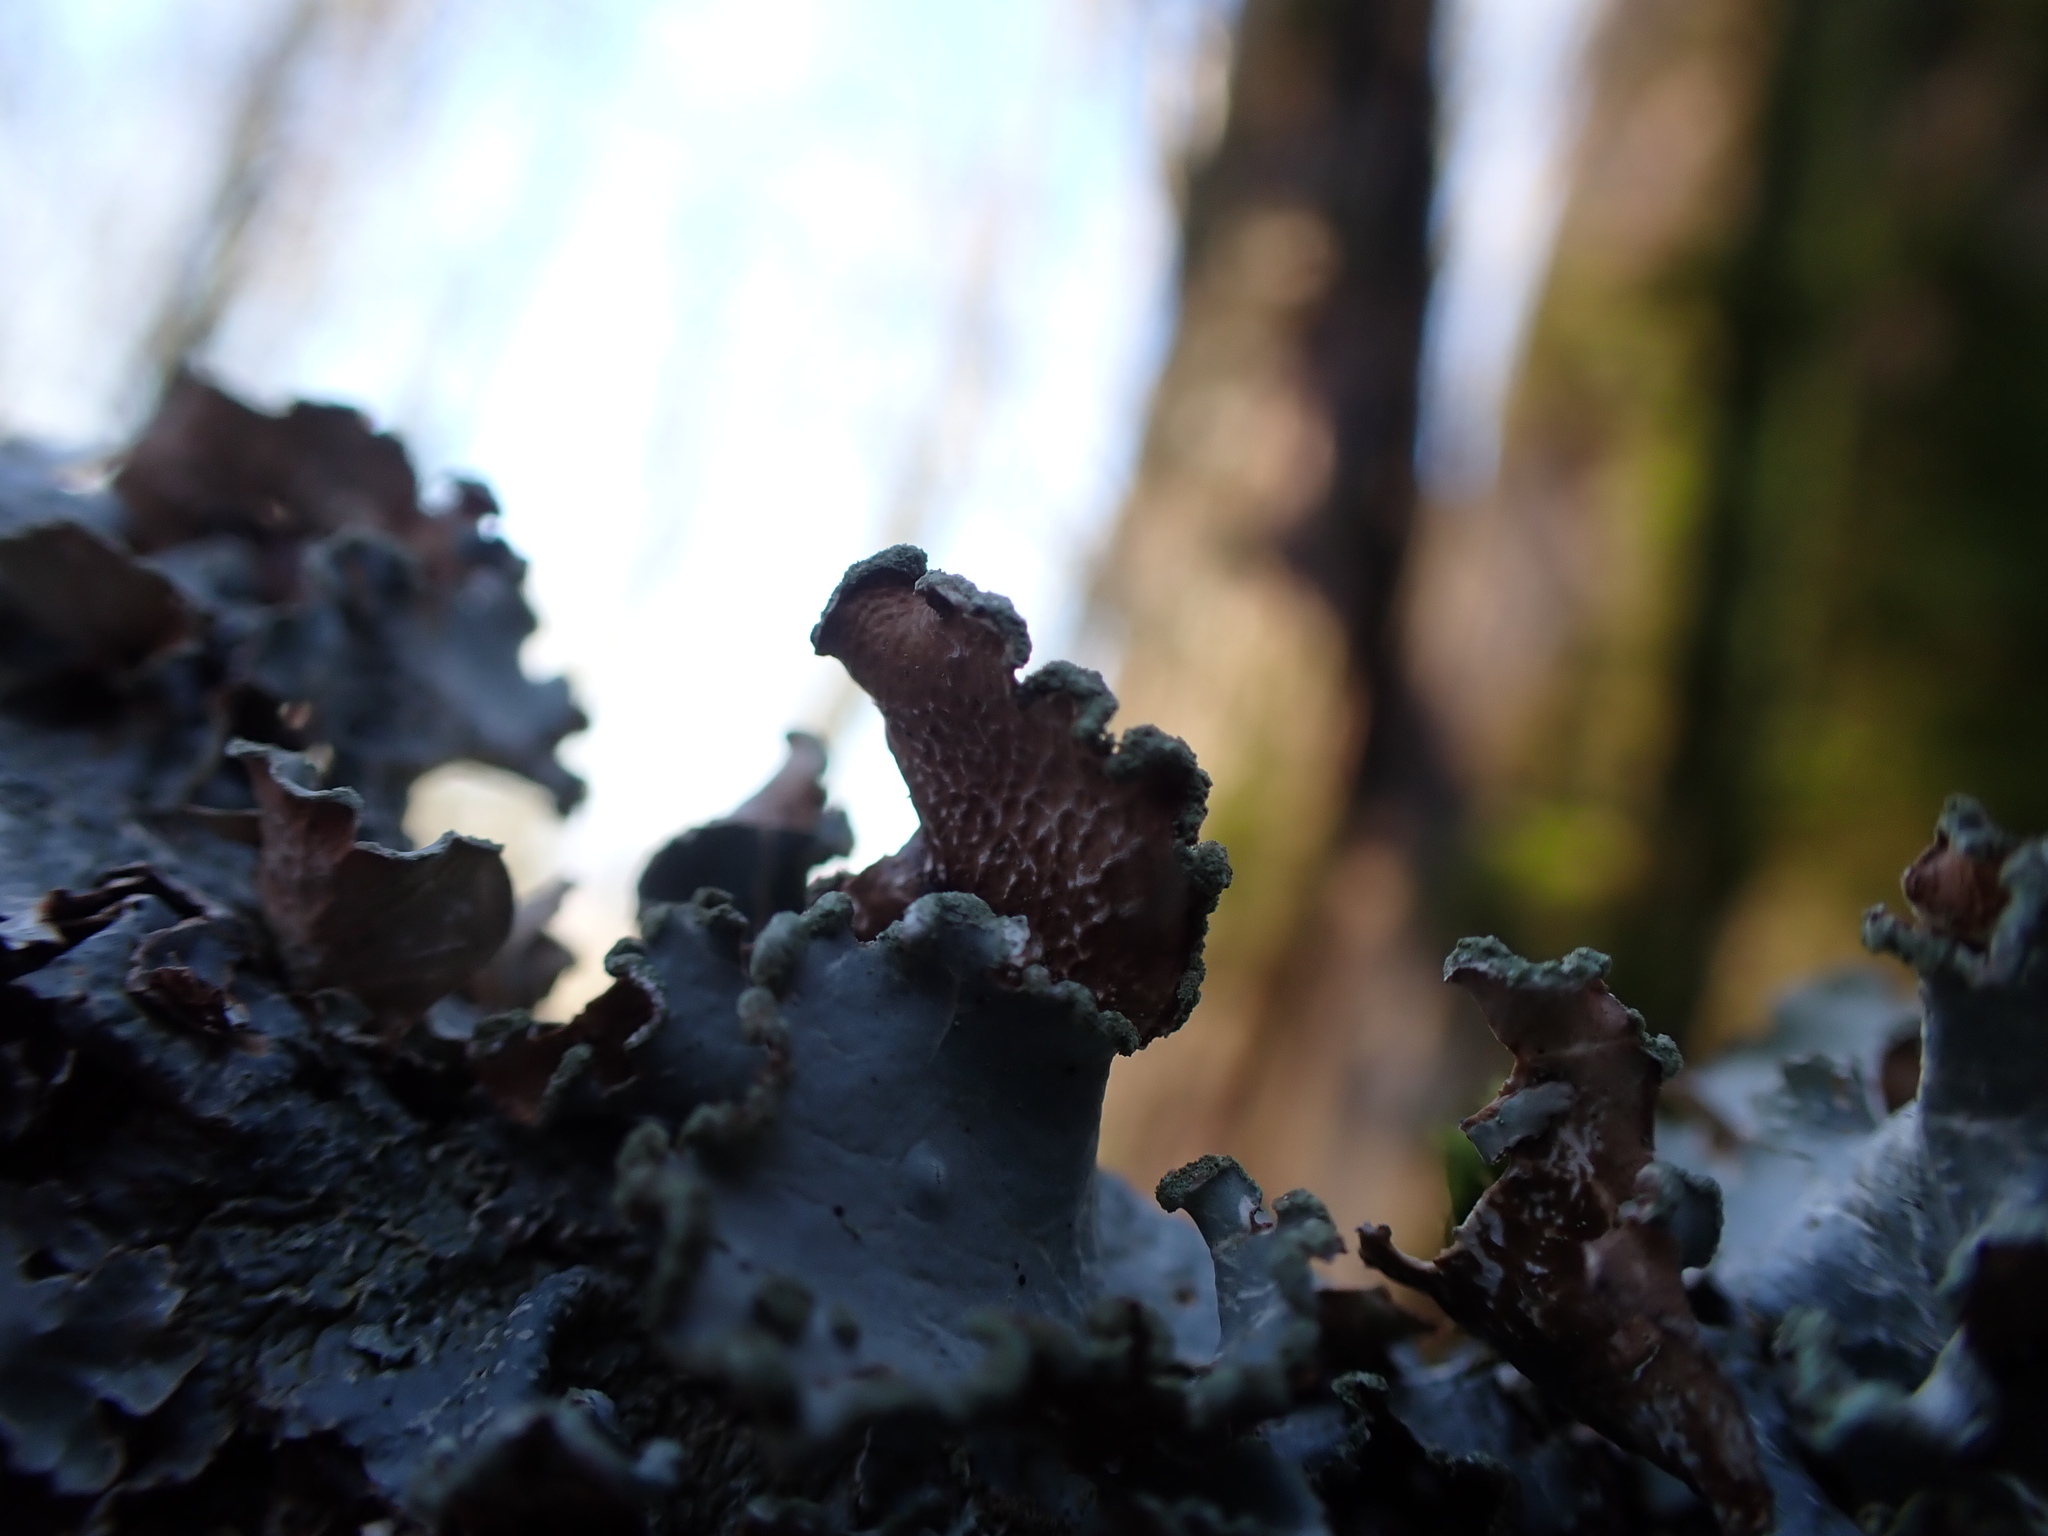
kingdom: Fungi
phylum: Ascomycota
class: Lecanoromycetes
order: Lecanorales
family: Parmeliaceae
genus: Cetrelia
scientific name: Cetrelia cetrarioides
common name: Speckled iceland lichen
